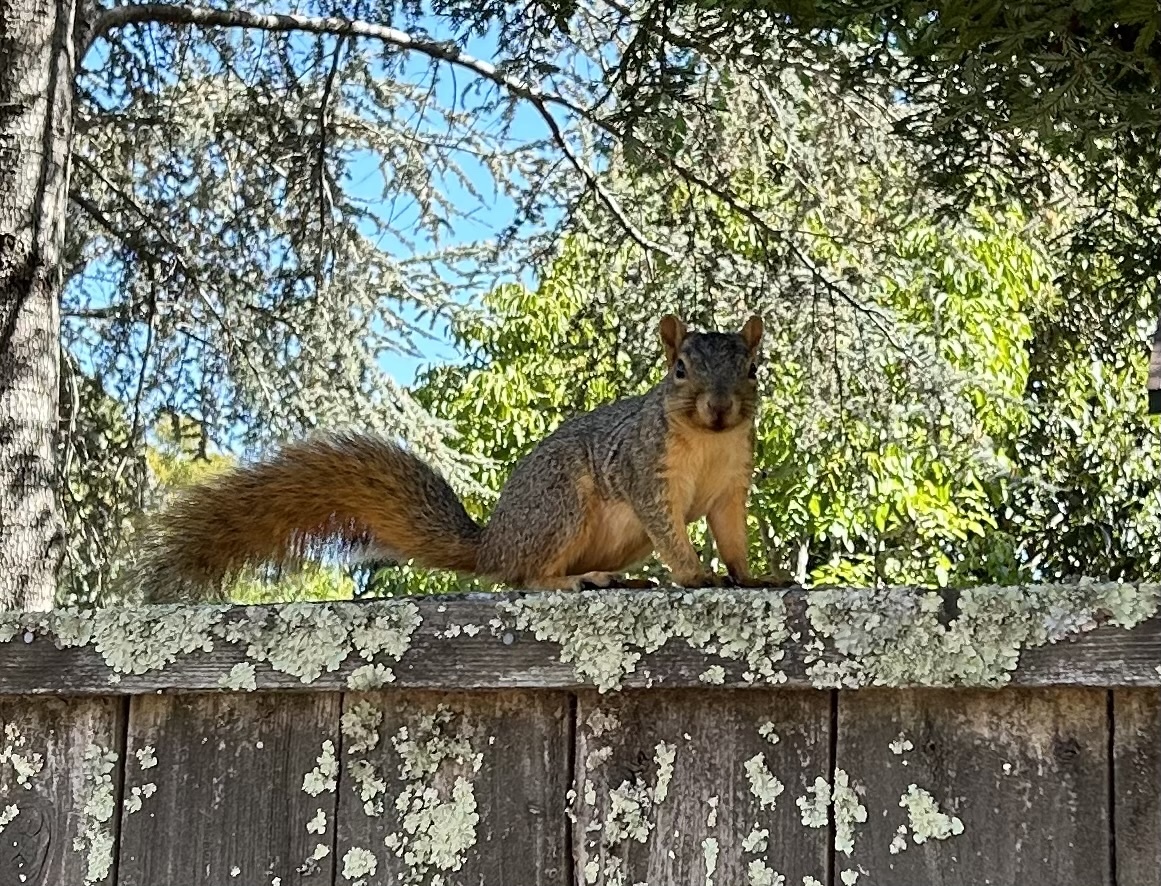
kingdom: Animalia
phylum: Chordata
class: Mammalia
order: Rodentia
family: Sciuridae
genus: Sciurus
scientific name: Sciurus niger
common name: Fox squirrel
